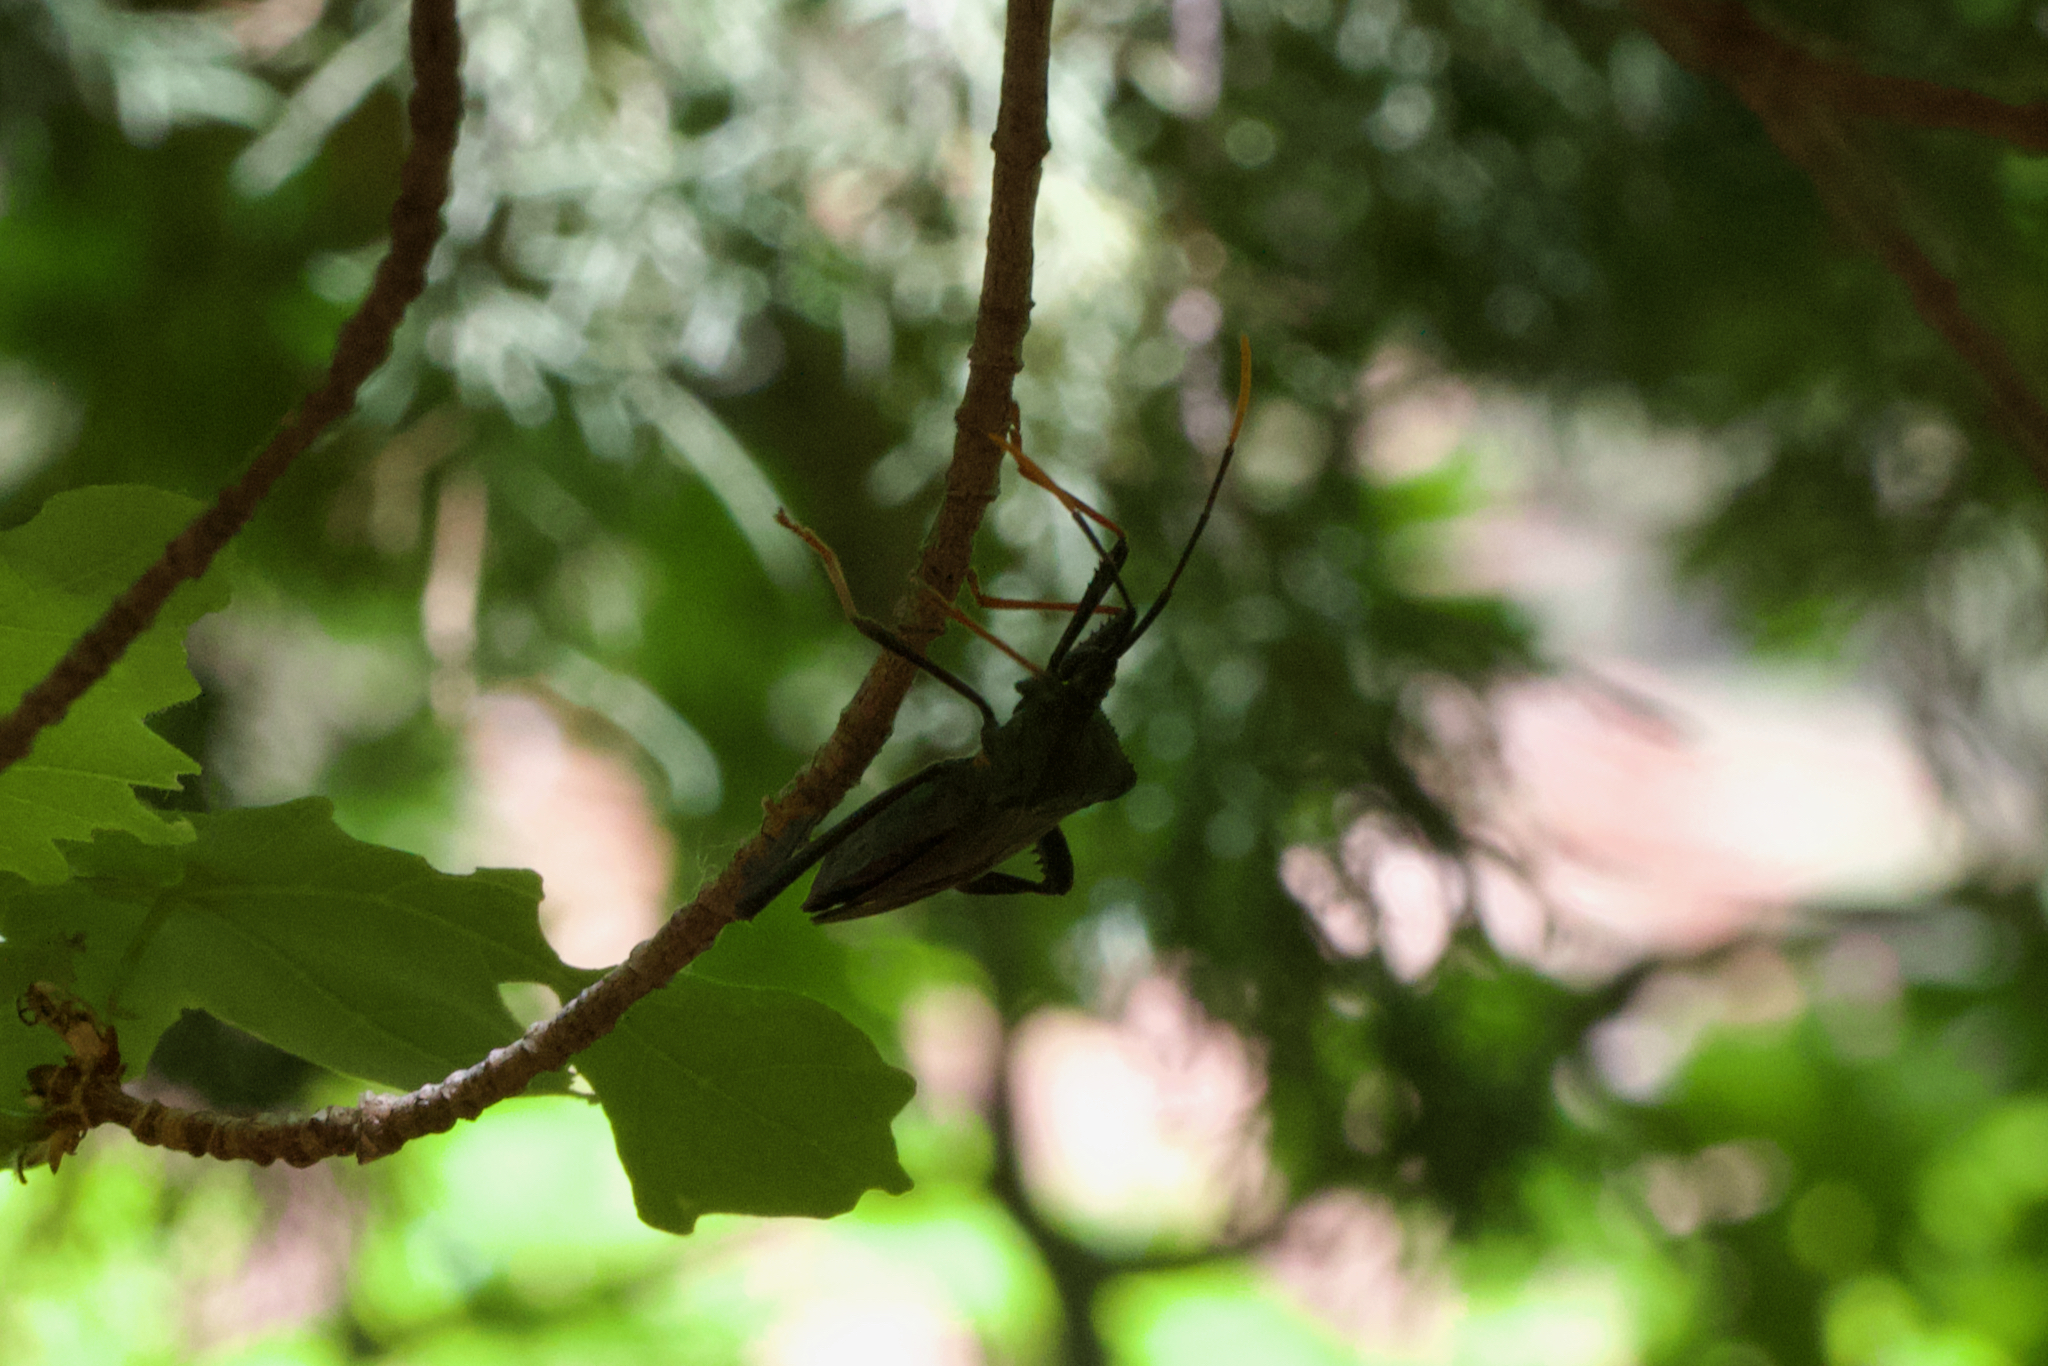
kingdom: Animalia
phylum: Arthropoda
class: Insecta
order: Hemiptera
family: Coreidae
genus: Acanthocephala
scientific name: Acanthocephala thomasi
